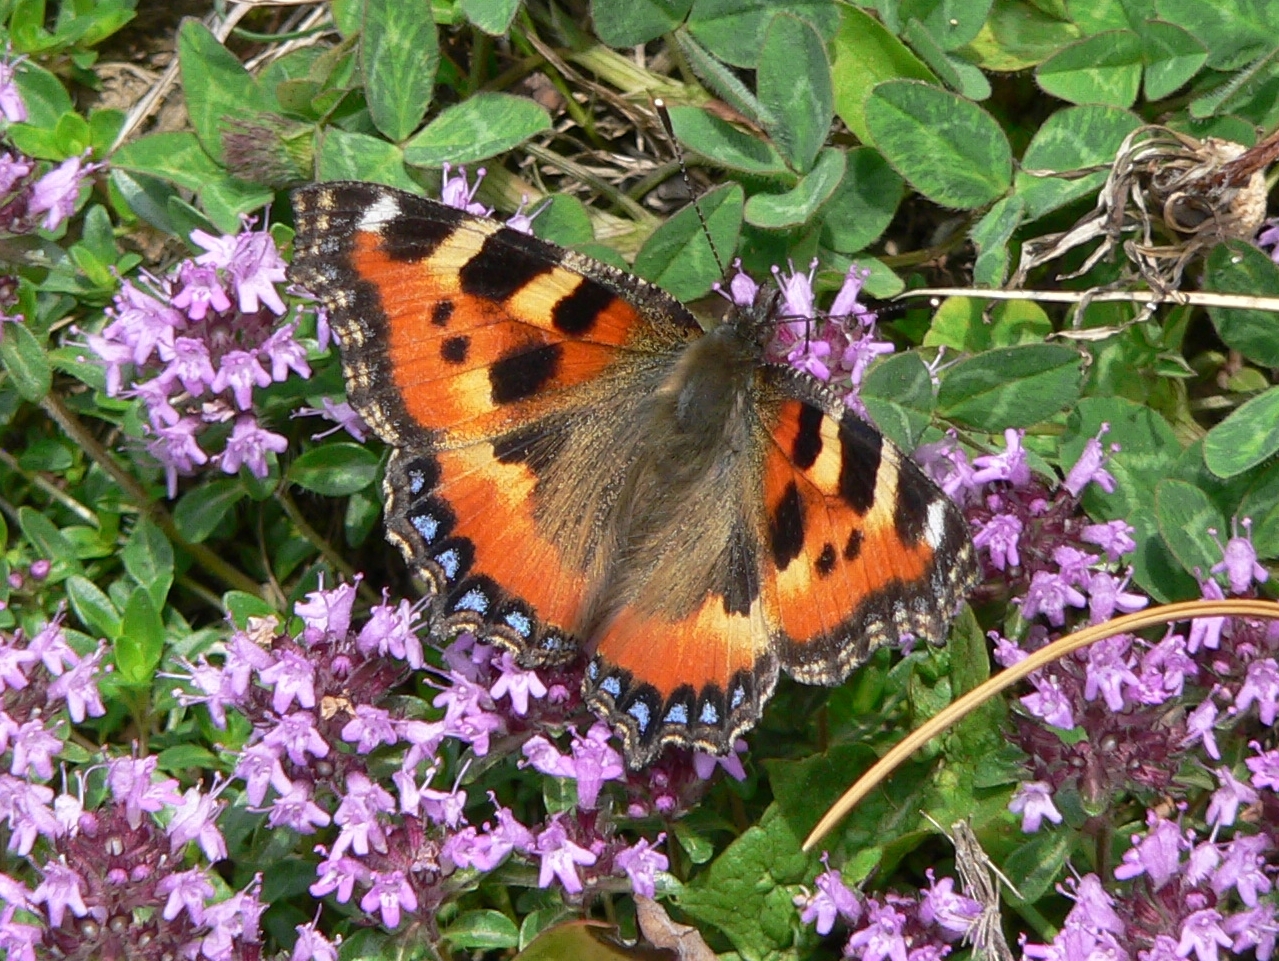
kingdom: Animalia
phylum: Arthropoda
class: Insecta
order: Lepidoptera
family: Nymphalidae
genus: Aglais
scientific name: Aglais urticae
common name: Small tortoiseshell
